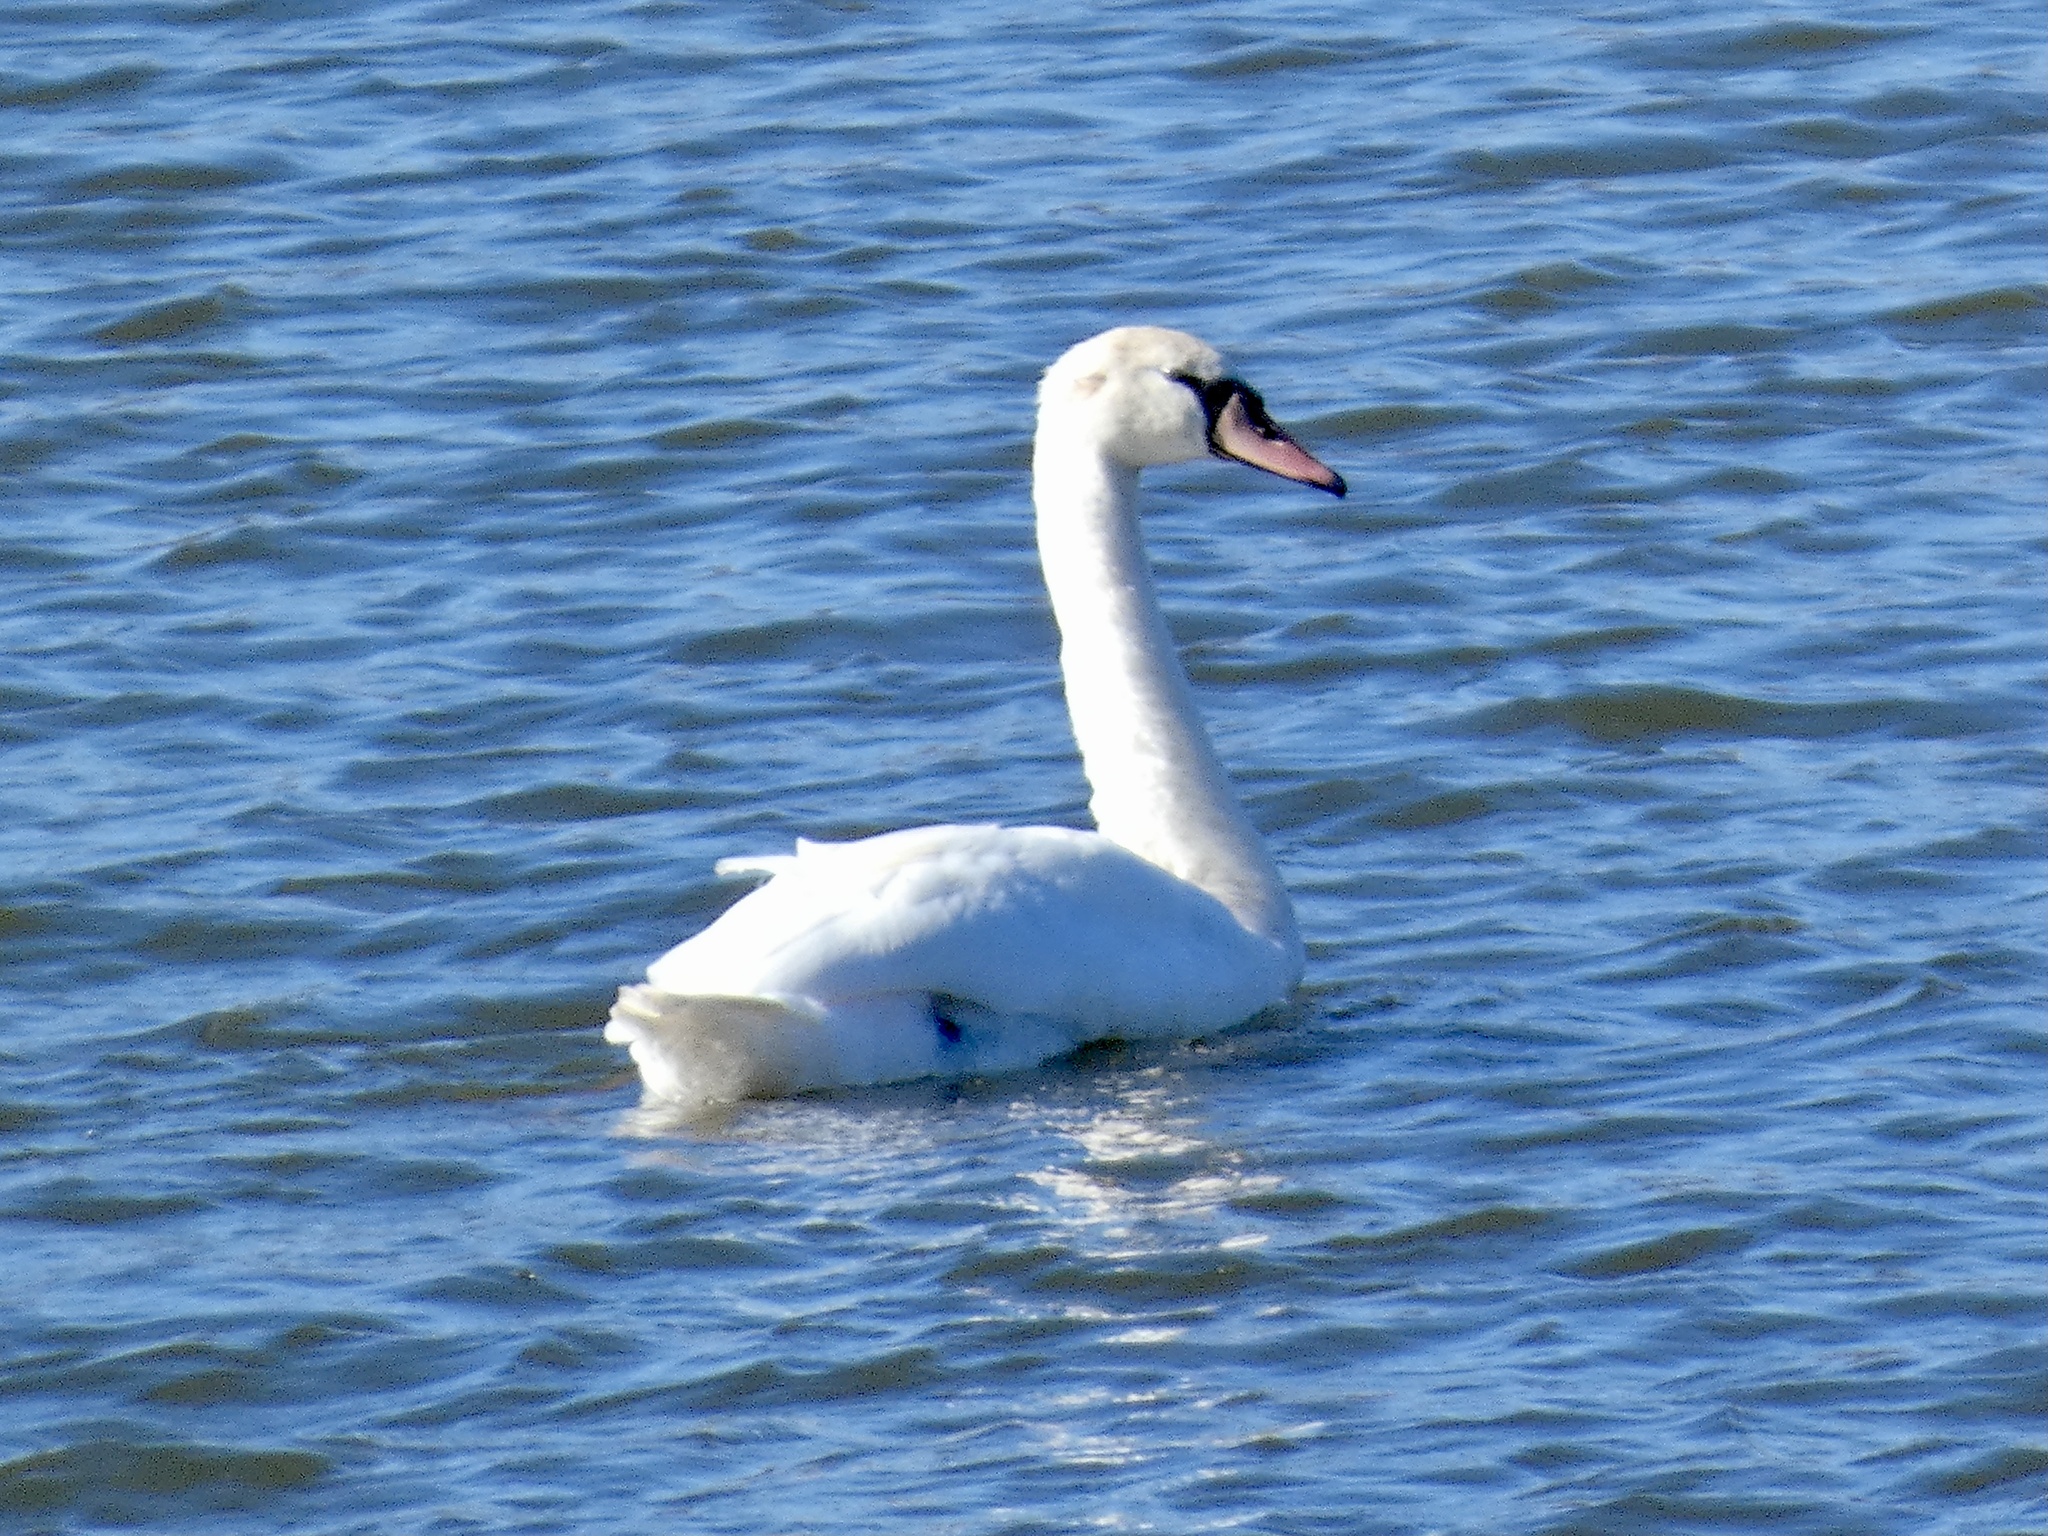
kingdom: Animalia
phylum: Chordata
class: Aves
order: Anseriformes
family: Anatidae
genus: Cygnus
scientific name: Cygnus olor
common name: Mute swan
